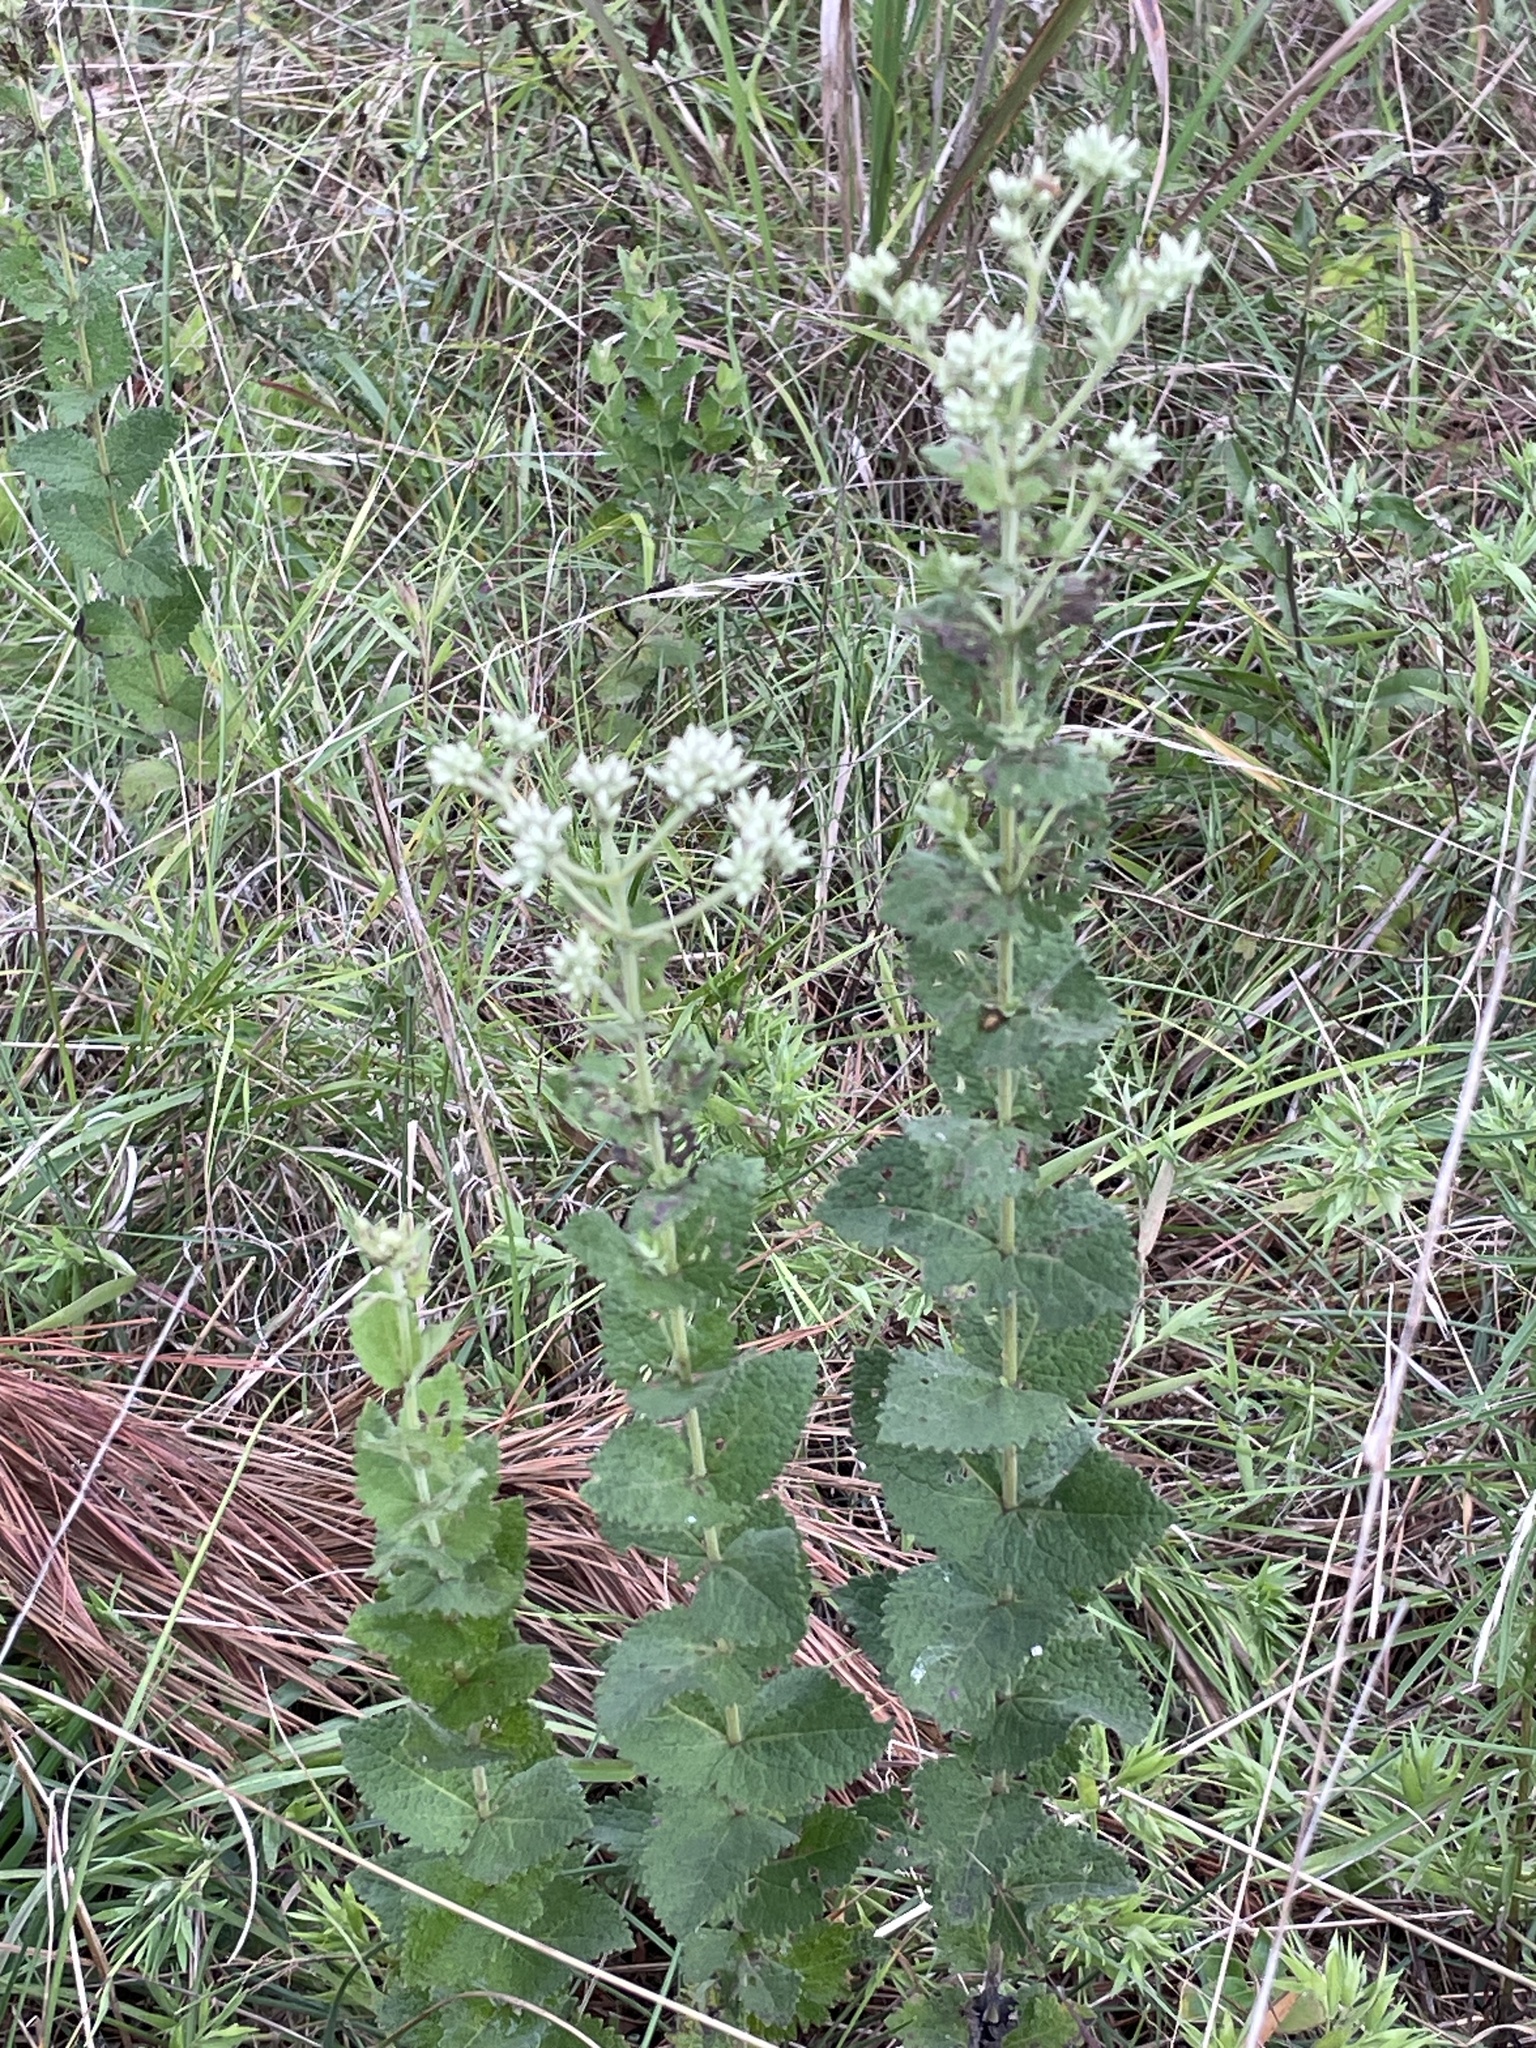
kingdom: Plantae
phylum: Tracheophyta
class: Magnoliopsida
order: Asterales
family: Asteraceae
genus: Eupatorium
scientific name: Eupatorium rotundifolium
